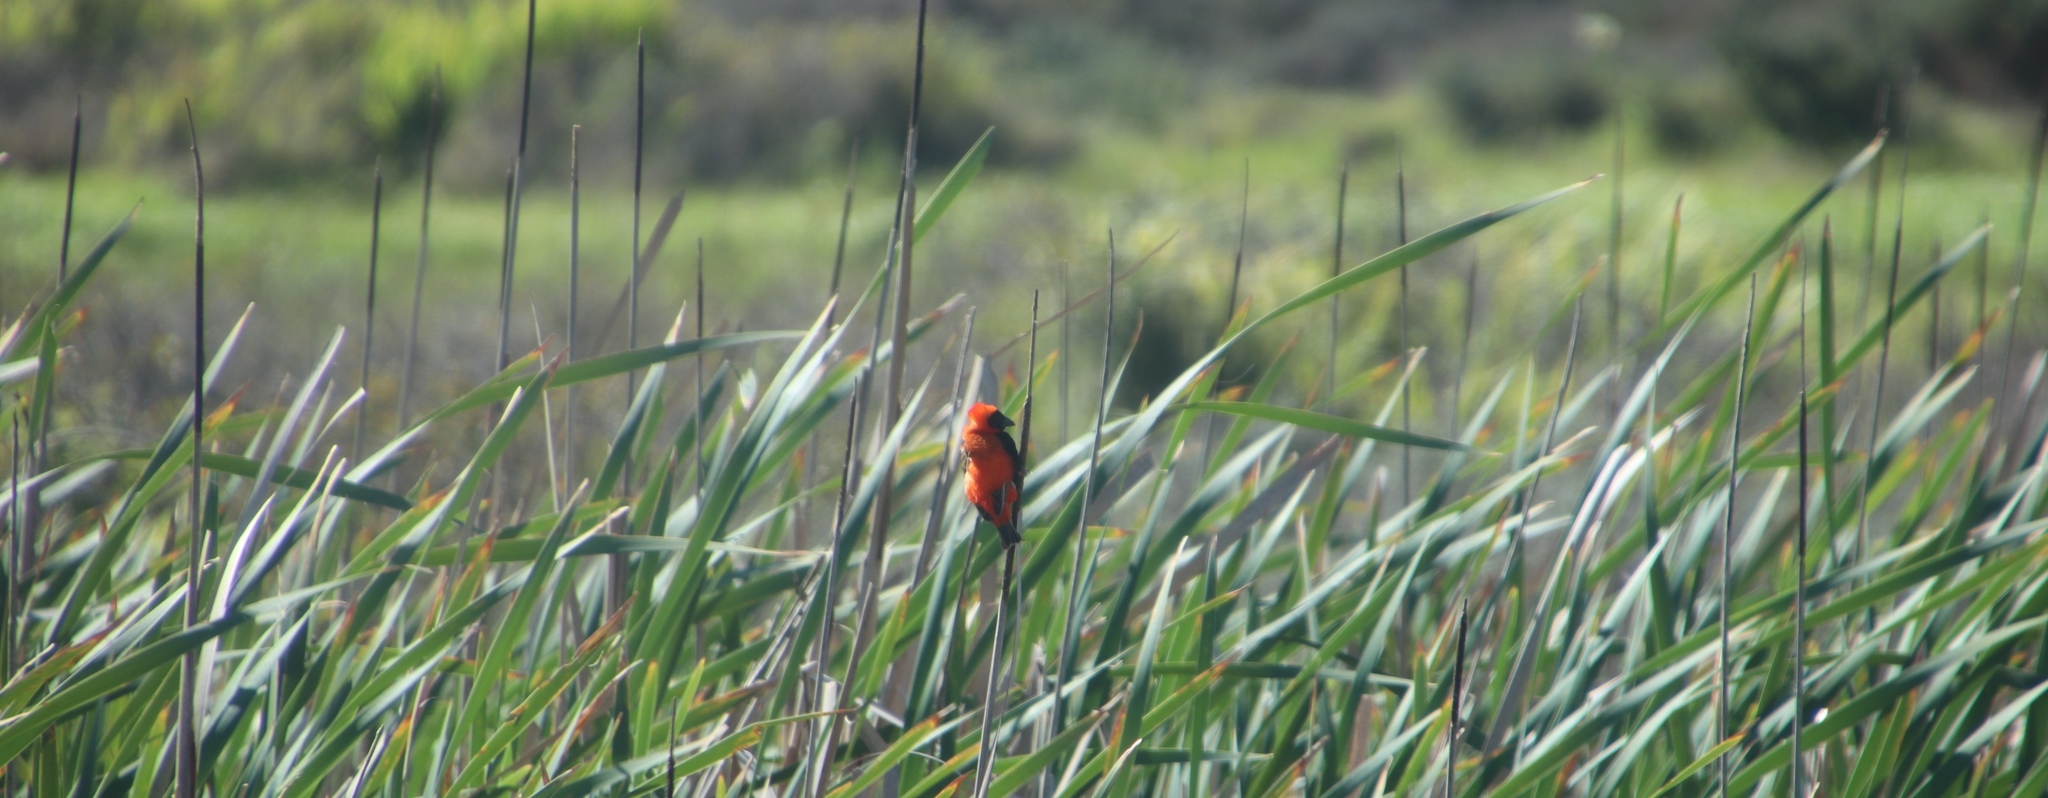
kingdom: Animalia
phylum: Chordata
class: Aves
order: Passeriformes
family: Ploceidae
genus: Euplectes
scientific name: Euplectes orix
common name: Southern red bishop
